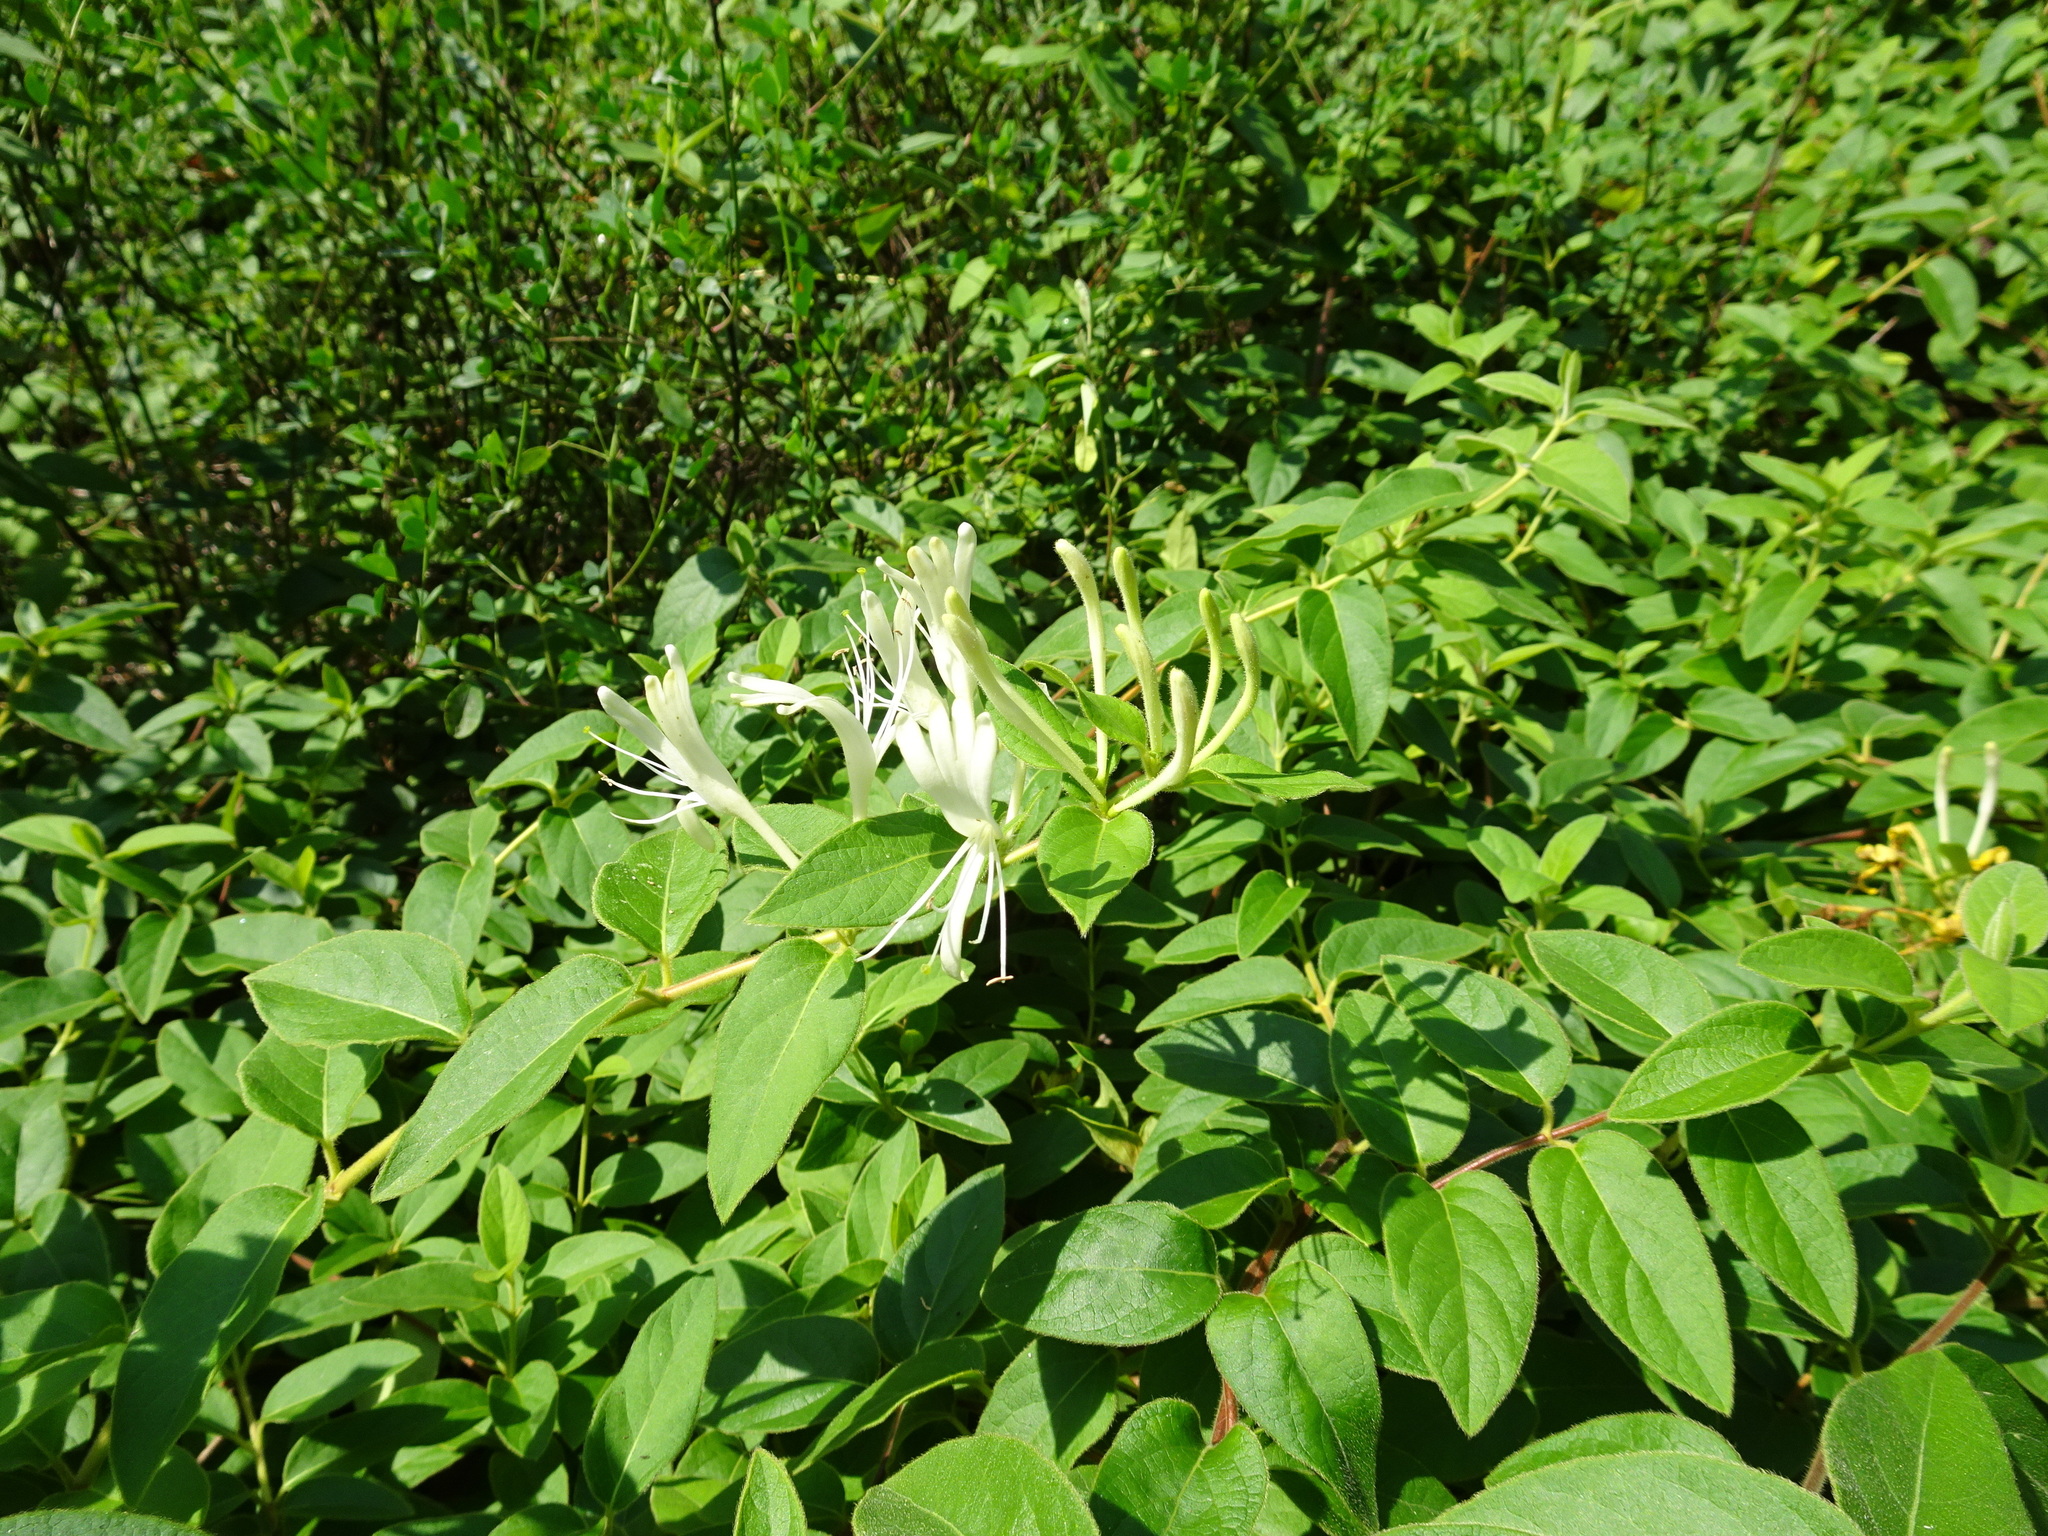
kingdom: Plantae
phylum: Tracheophyta
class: Magnoliopsida
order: Dipsacales
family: Caprifoliaceae
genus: Lonicera
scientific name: Lonicera japonica
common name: Japanese honeysuckle
